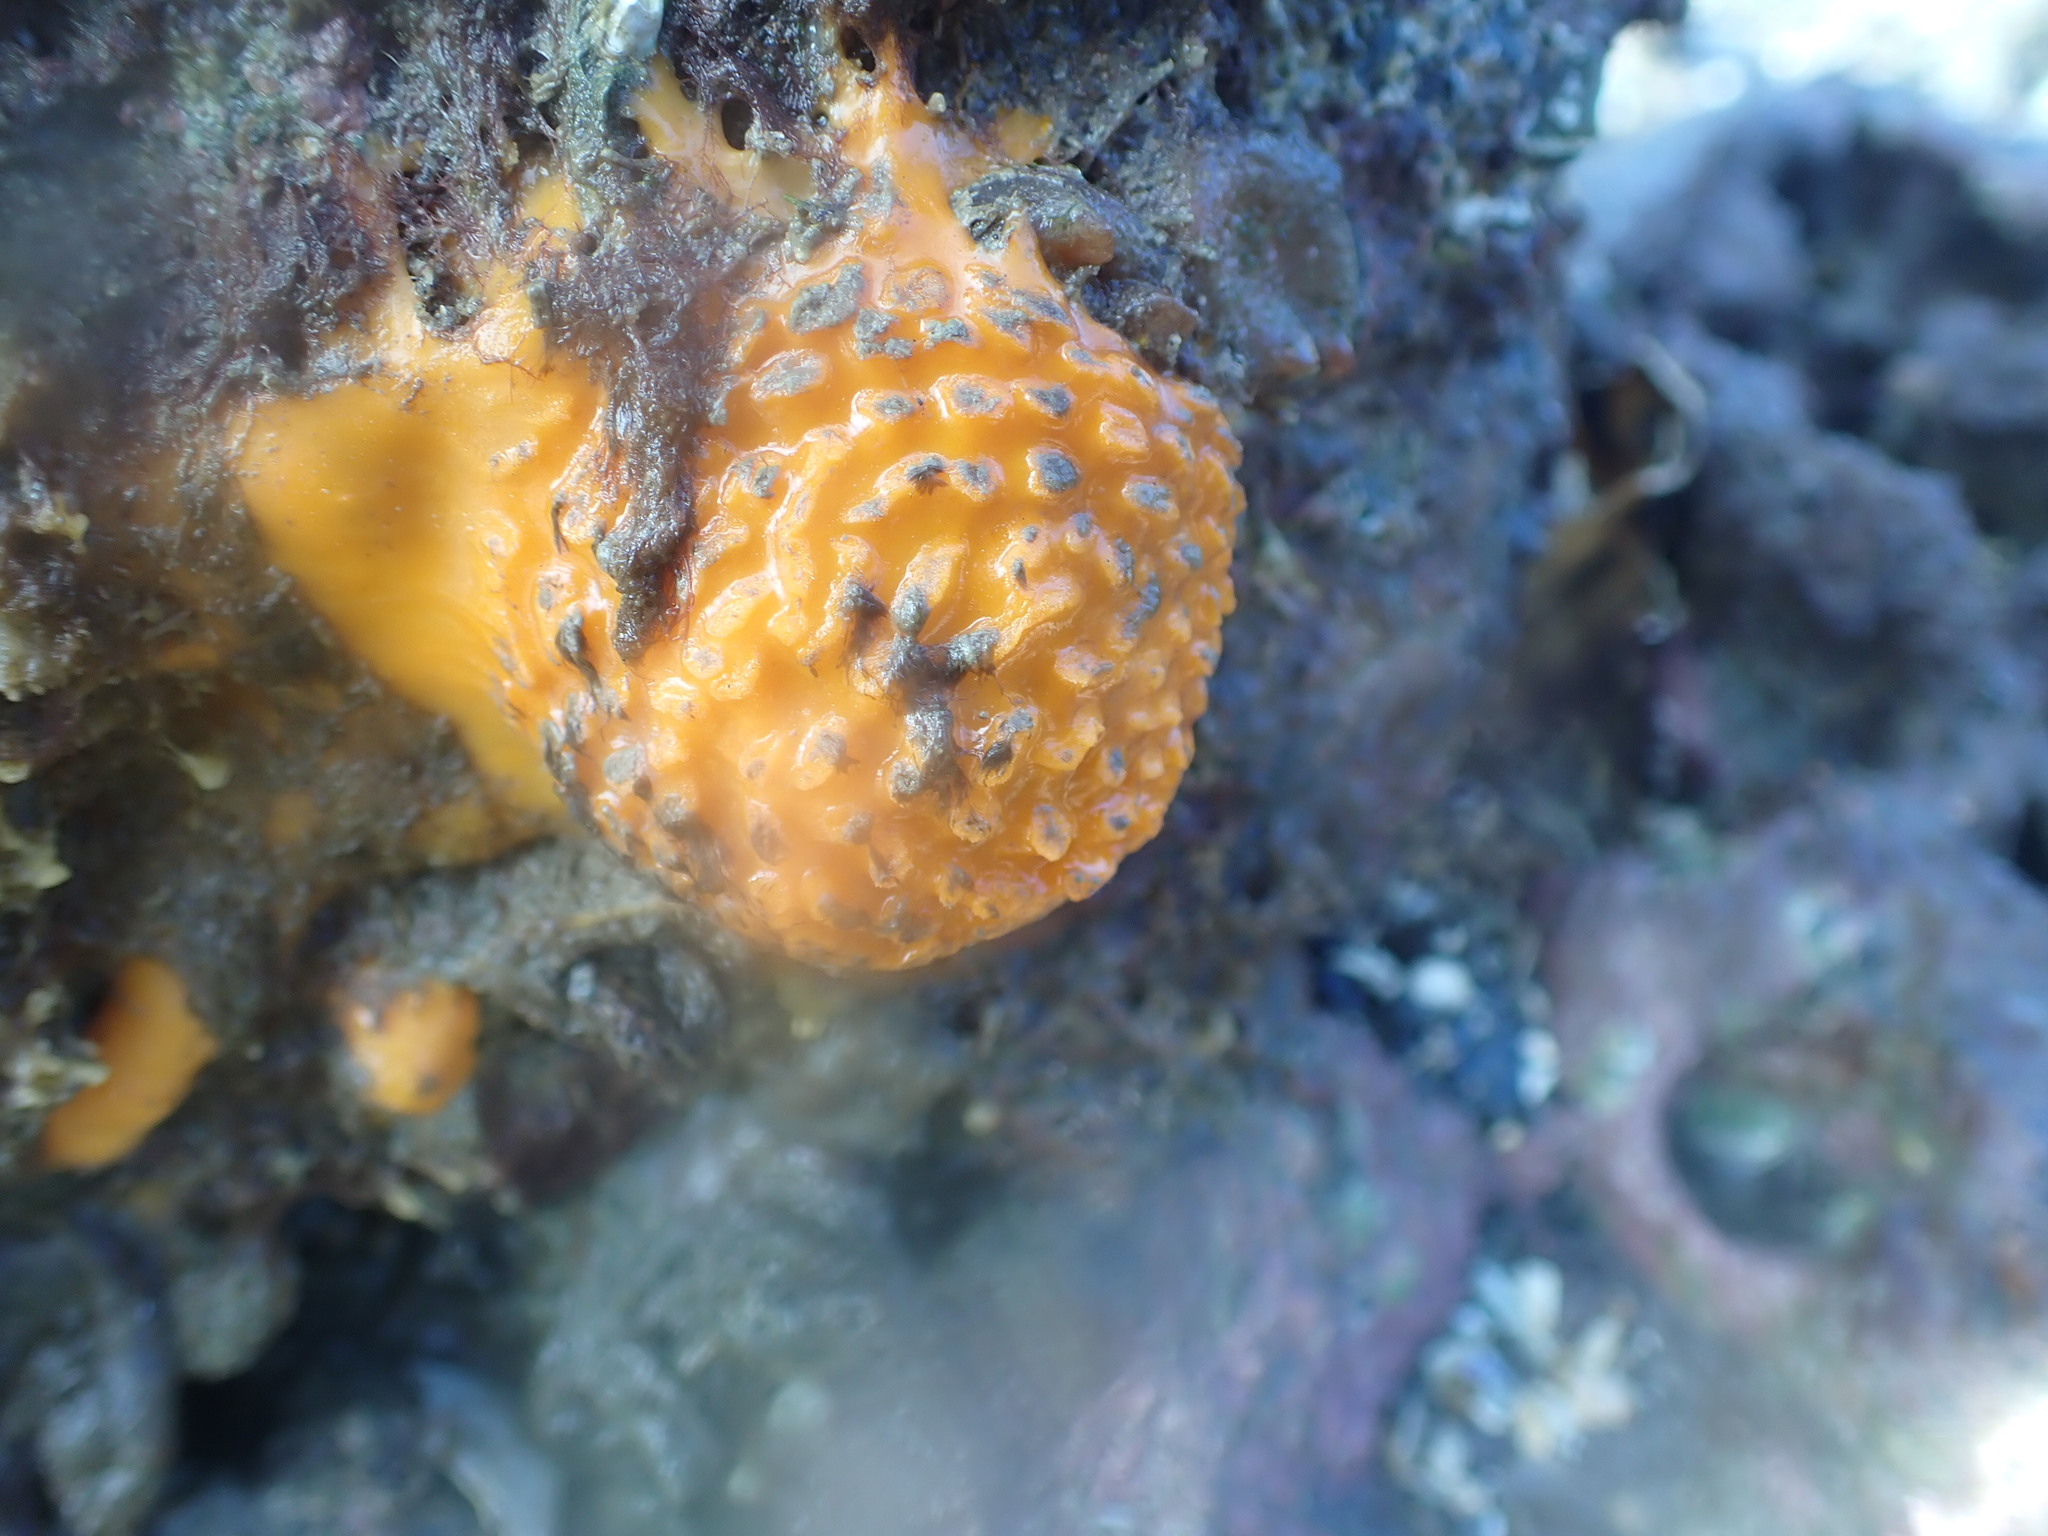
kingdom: Animalia
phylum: Porifera
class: Demospongiae
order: Tethyida
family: Tethyidae
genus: Tethya
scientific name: Tethya burtoni
